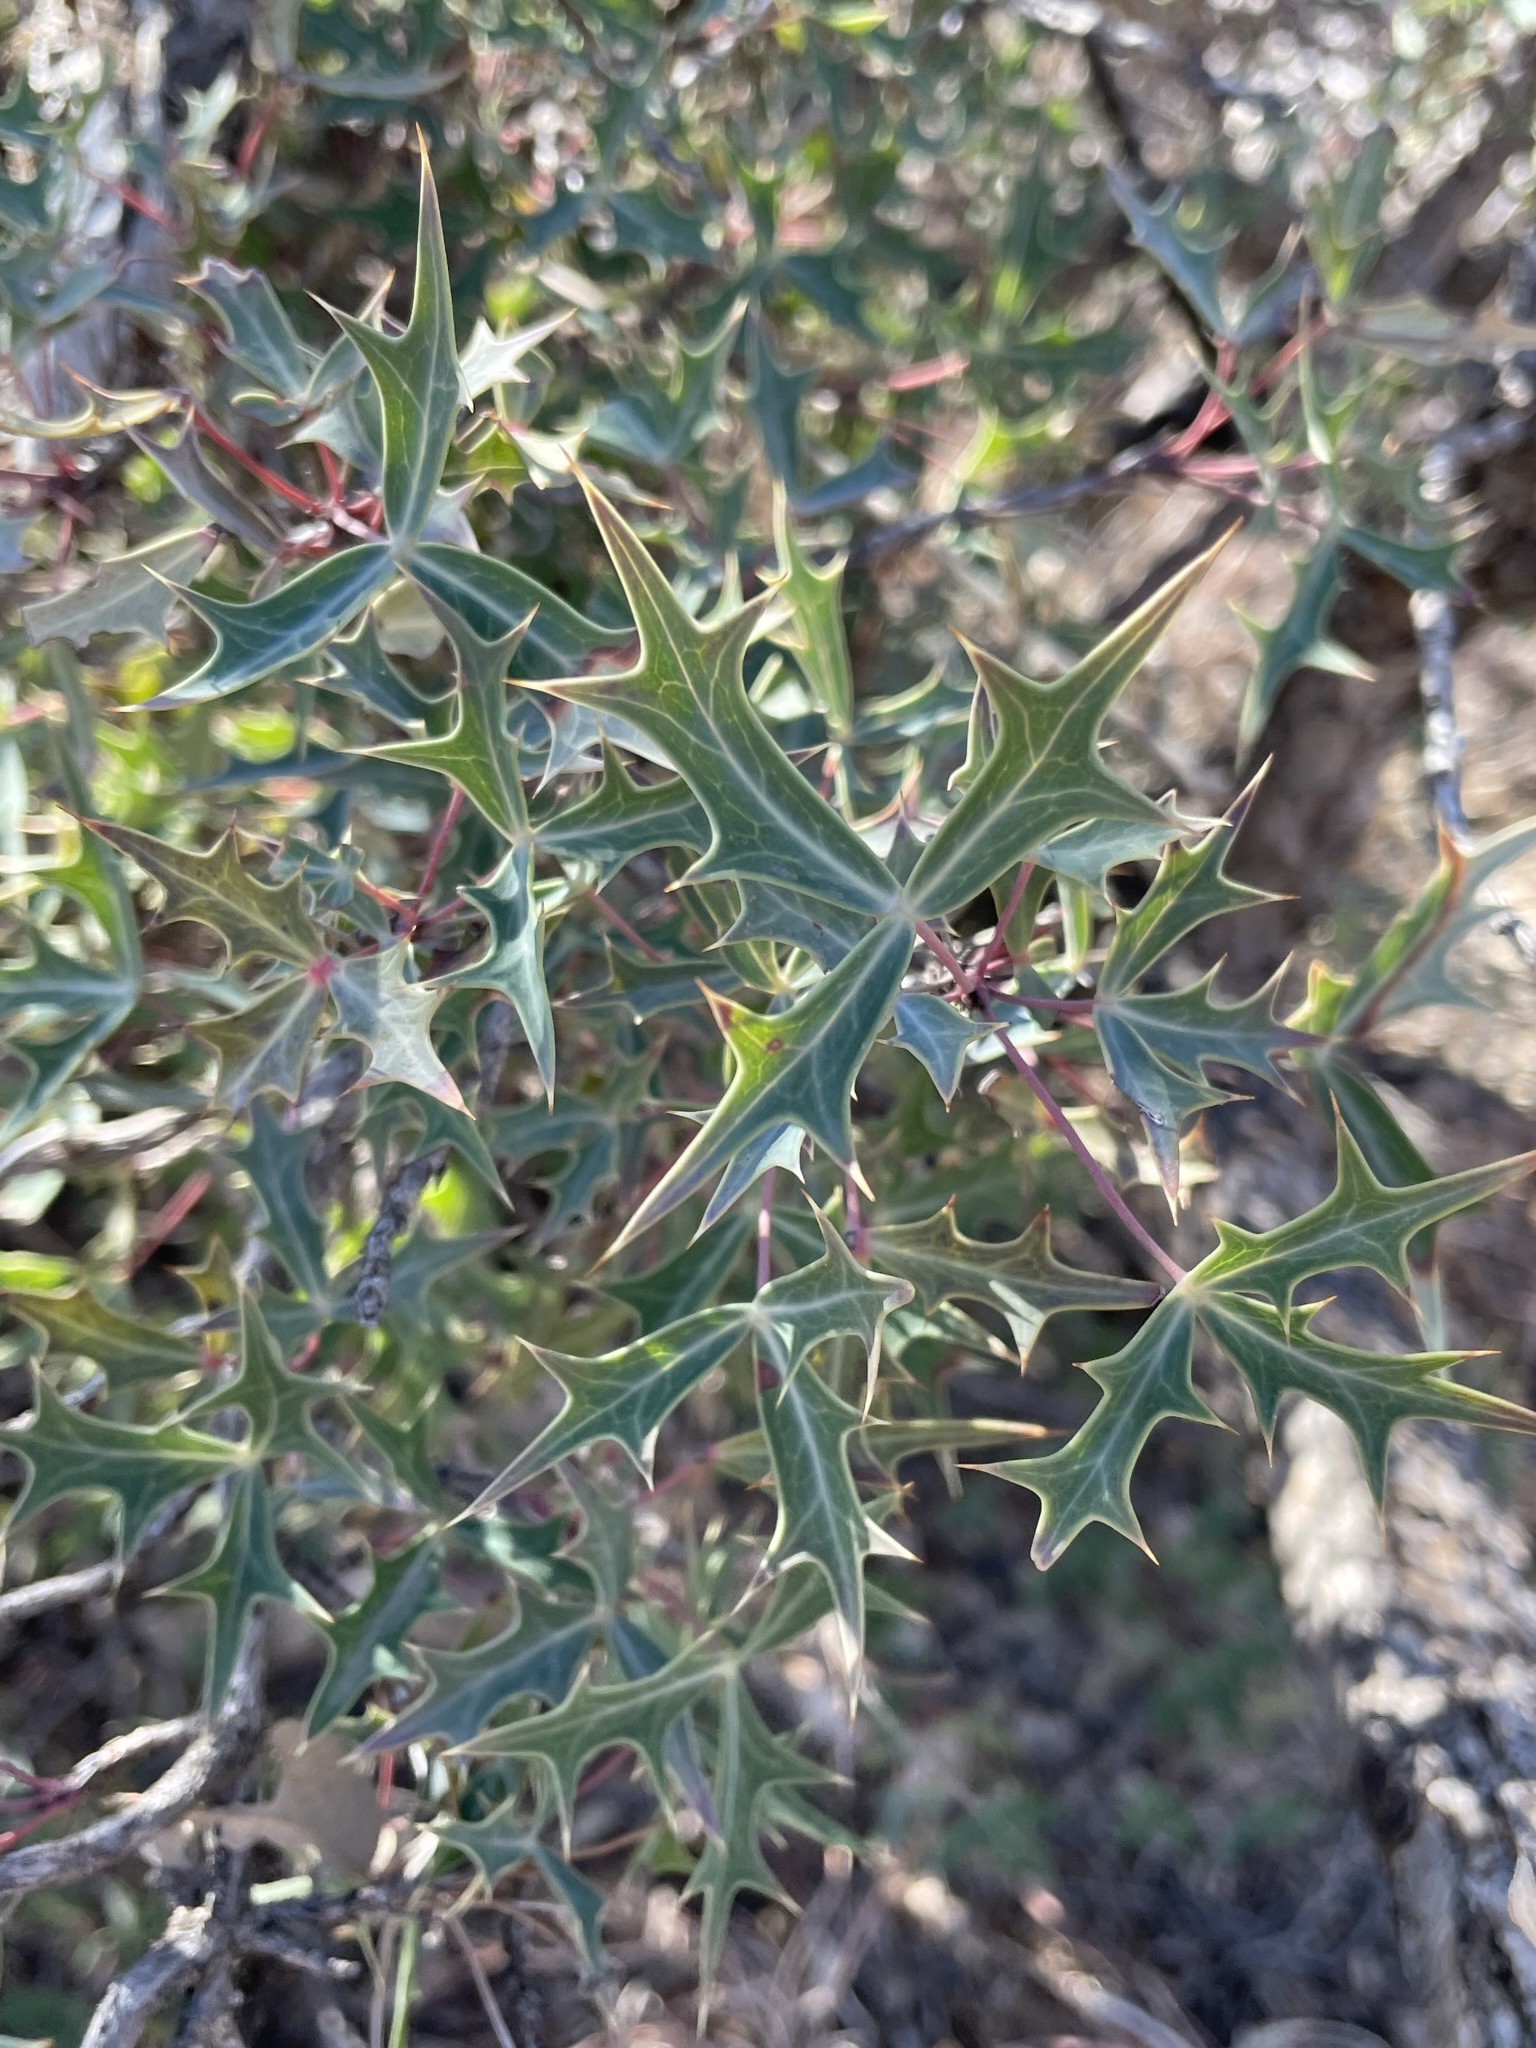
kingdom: Plantae
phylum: Tracheophyta
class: Magnoliopsida
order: Ranunculales
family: Berberidaceae
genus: Alloberberis
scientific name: Alloberberis trifoliolata
